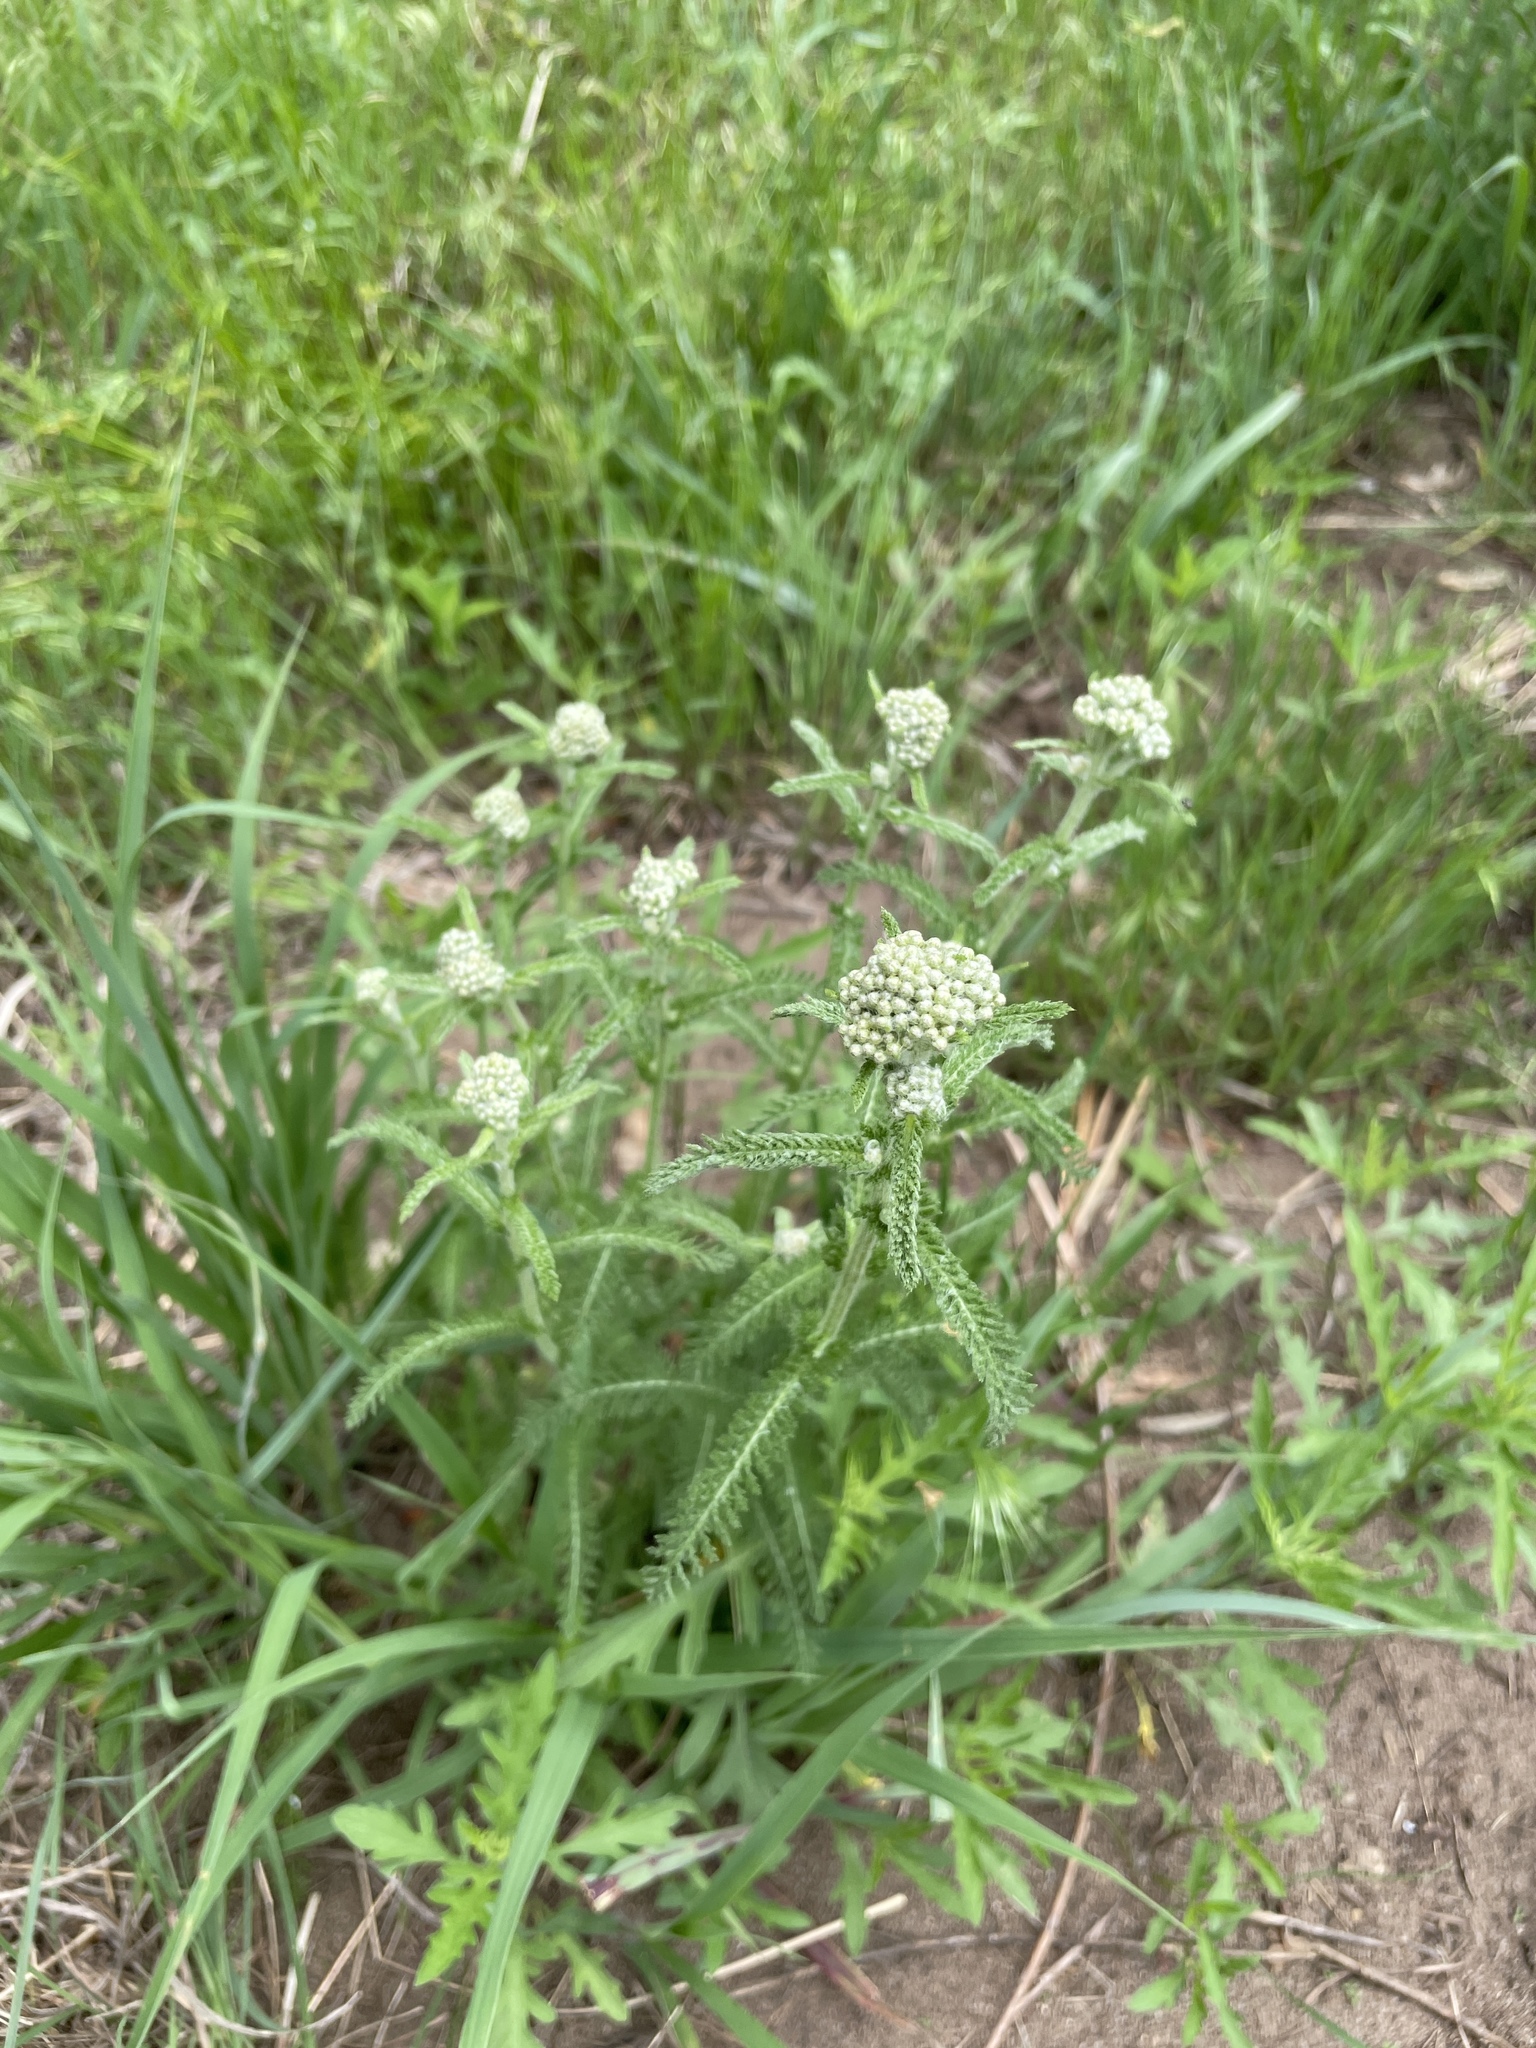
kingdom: Plantae
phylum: Tracheophyta
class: Magnoliopsida
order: Asterales
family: Asteraceae
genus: Achillea
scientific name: Achillea millefolium
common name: Yarrow
